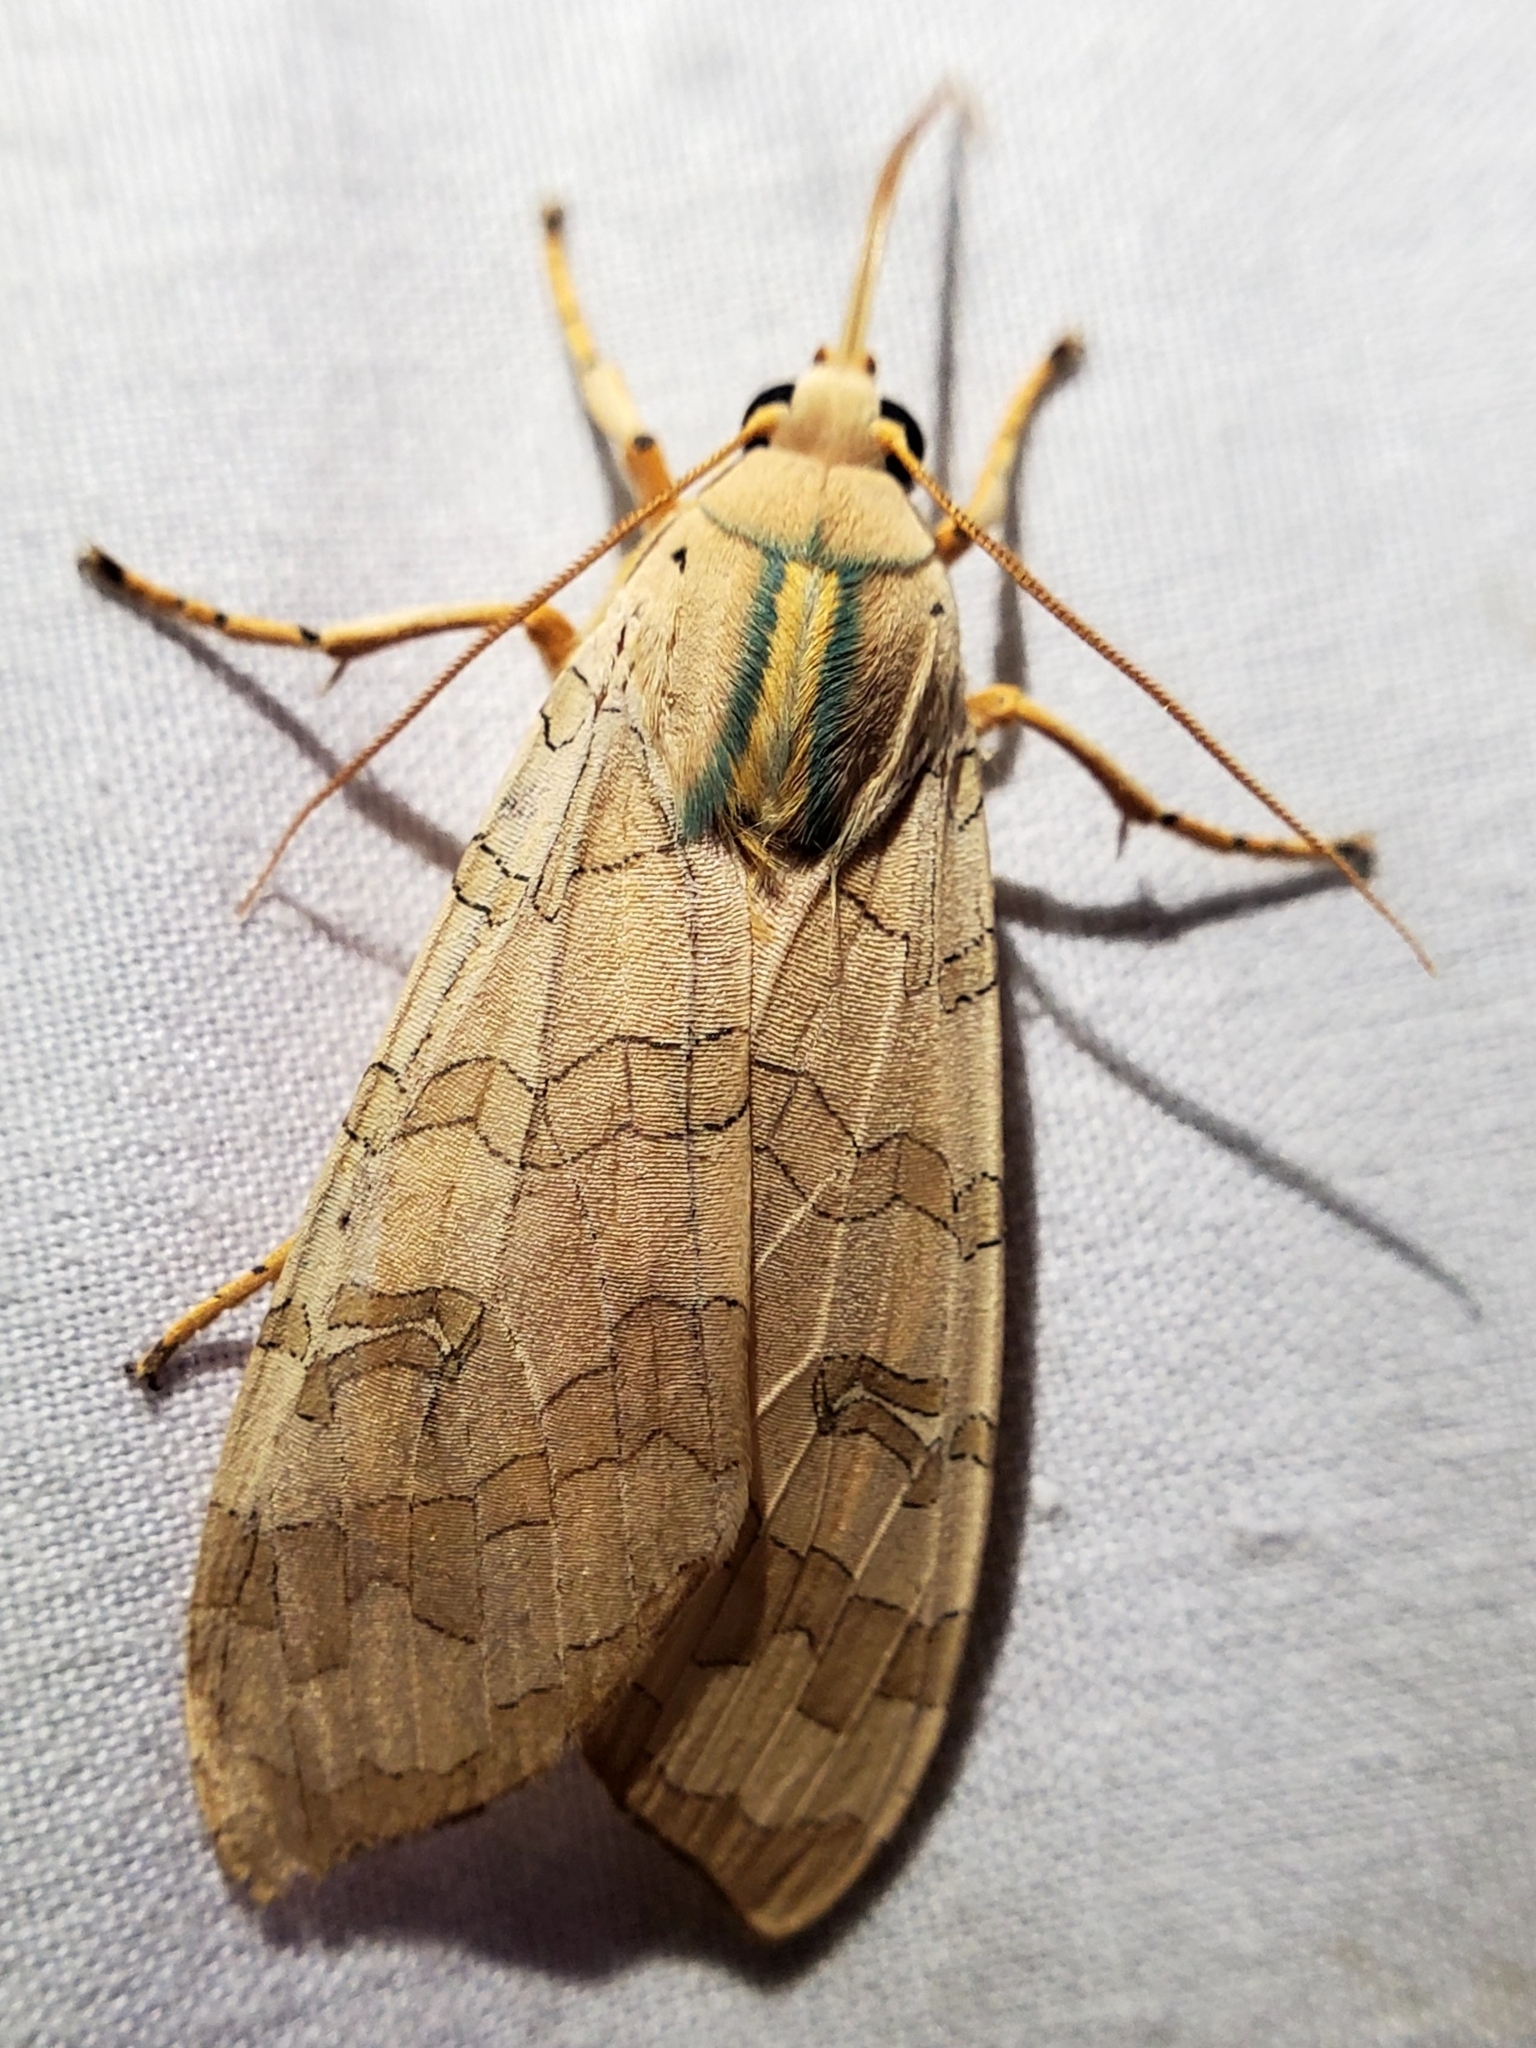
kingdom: Animalia
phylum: Arthropoda
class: Insecta
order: Lepidoptera
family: Erebidae
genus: Halysidota
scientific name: Halysidota
